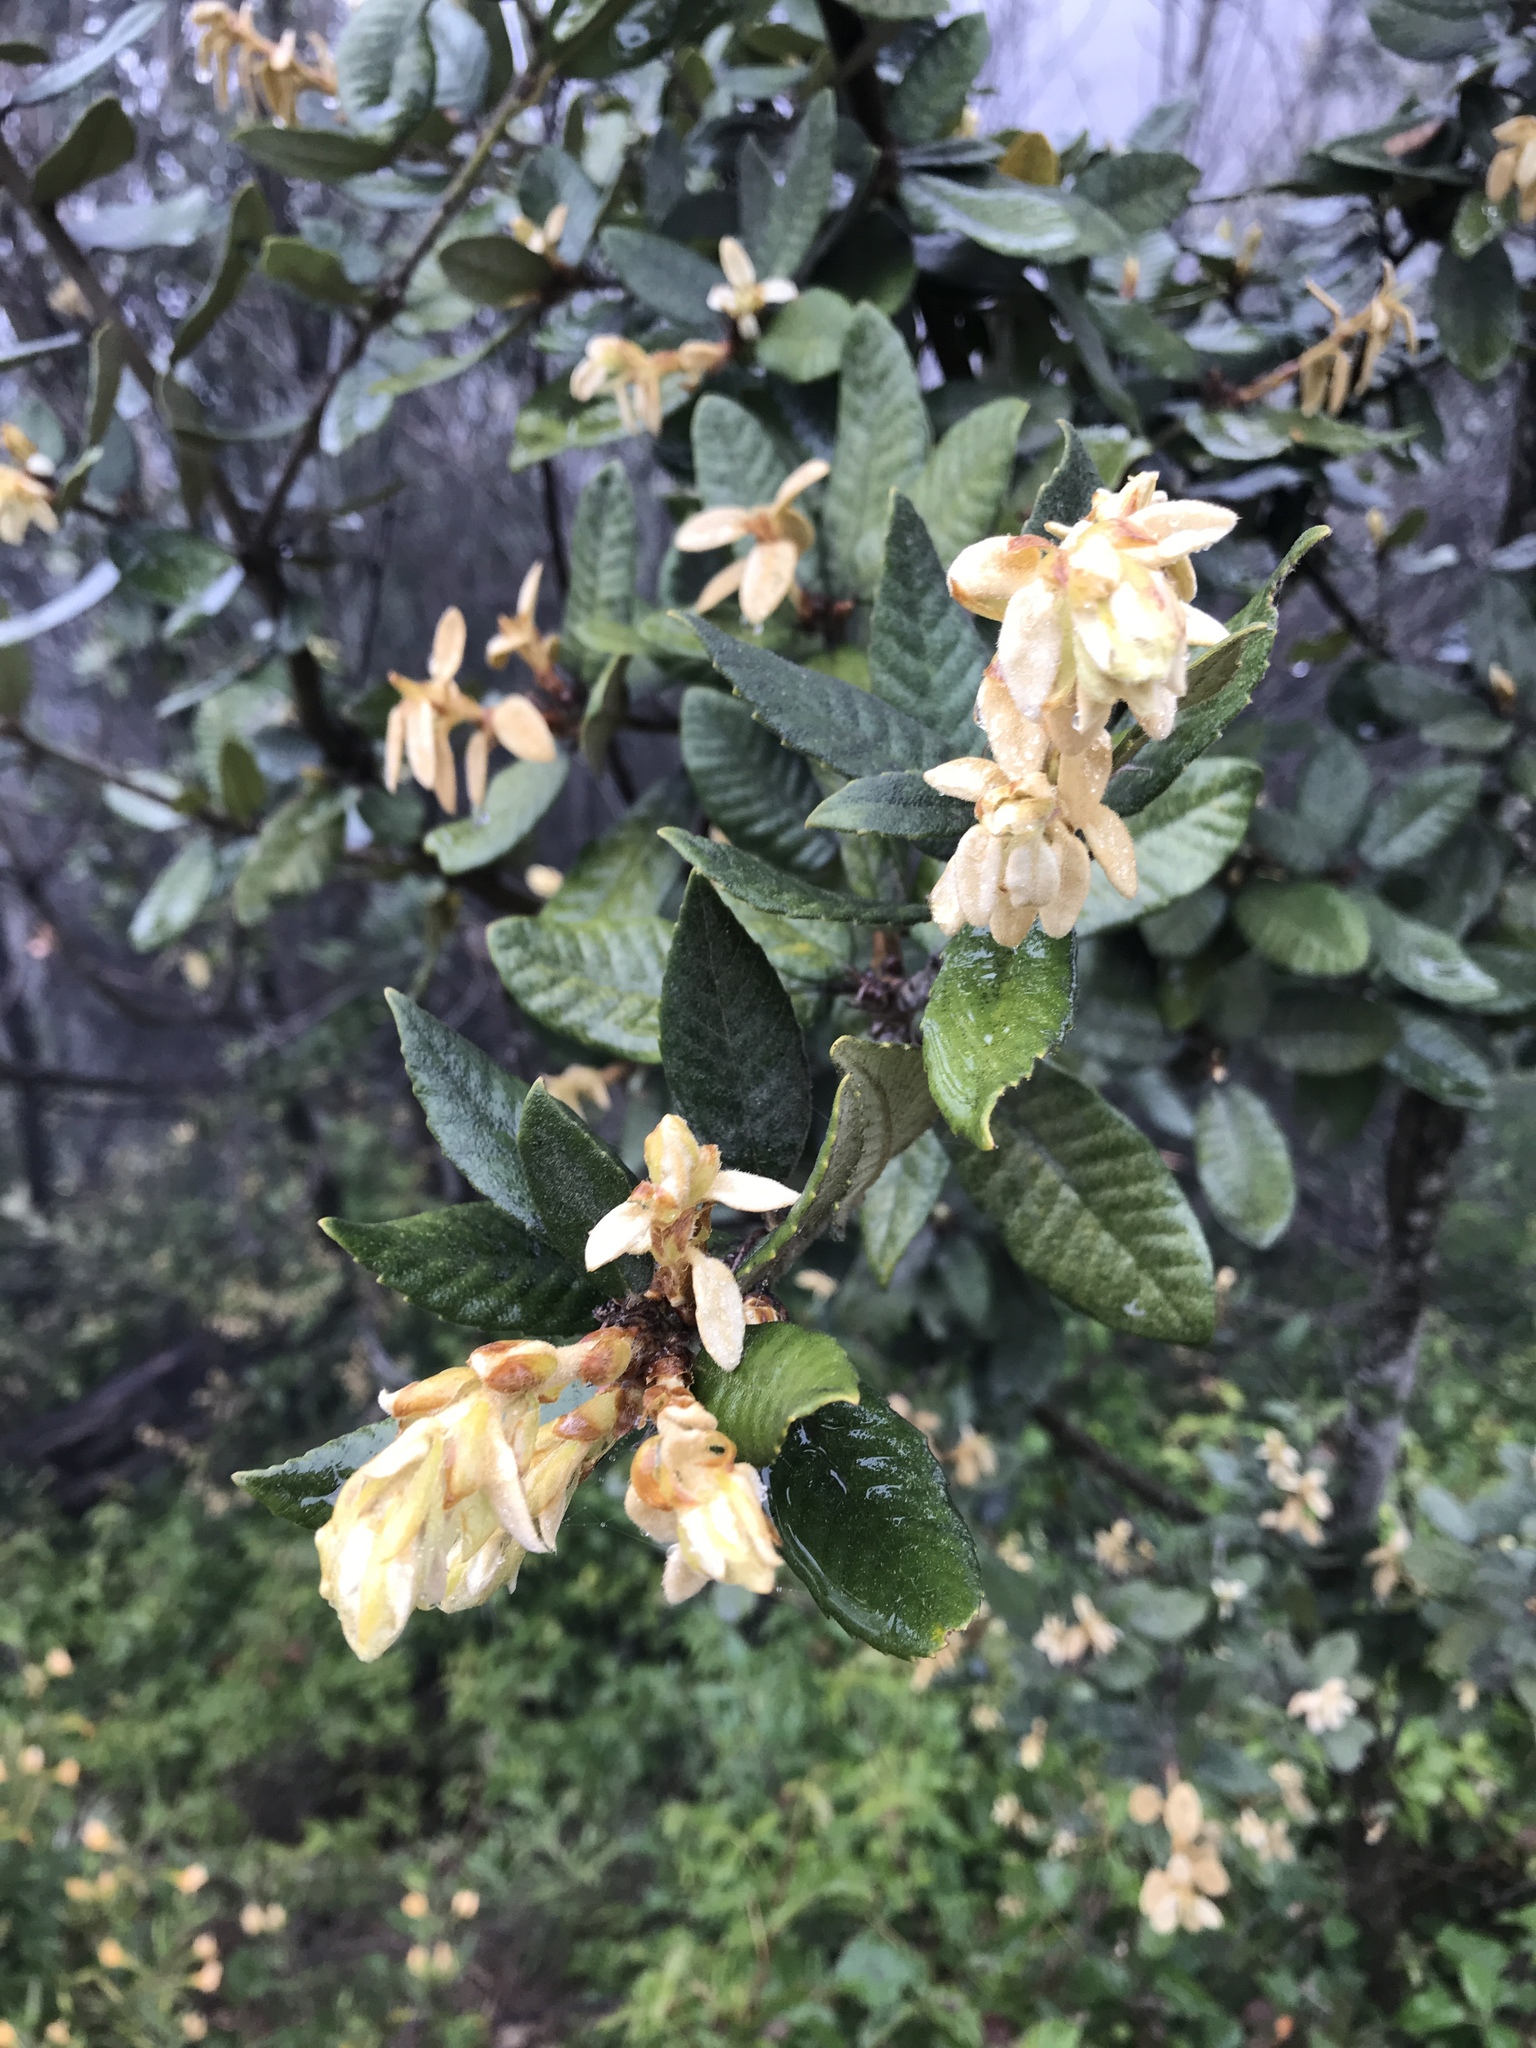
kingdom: Plantae
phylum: Tracheophyta
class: Magnoliopsida
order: Fagales
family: Fagaceae
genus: Notholithocarpus
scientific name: Notholithocarpus densiflorus
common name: Tan bark oak
